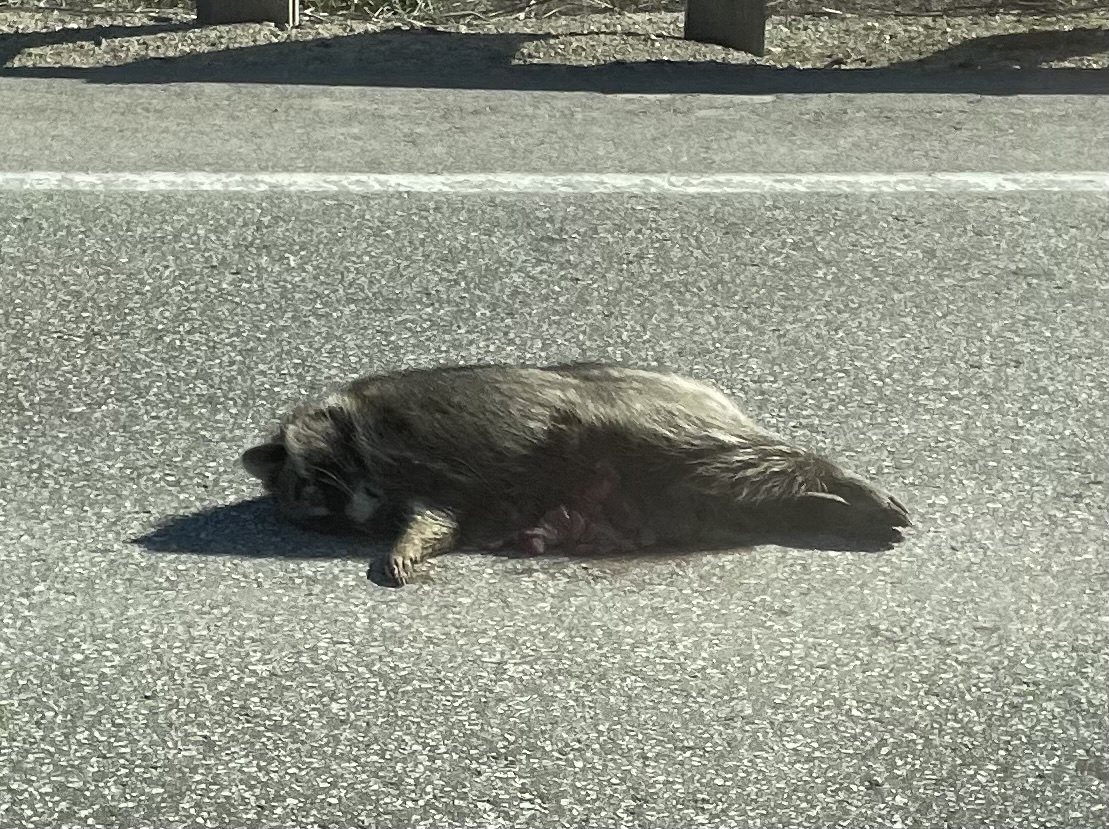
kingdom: Animalia
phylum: Chordata
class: Mammalia
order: Carnivora
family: Procyonidae
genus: Procyon
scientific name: Procyon lotor
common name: Raccoon
